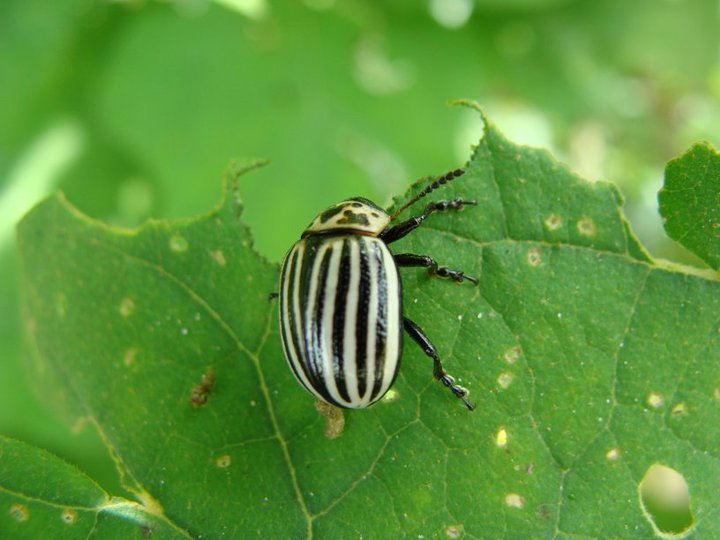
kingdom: Animalia
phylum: Arthropoda
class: Insecta
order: Coleoptera
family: Chrysomelidae
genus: Leptinotarsa
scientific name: Leptinotarsa
